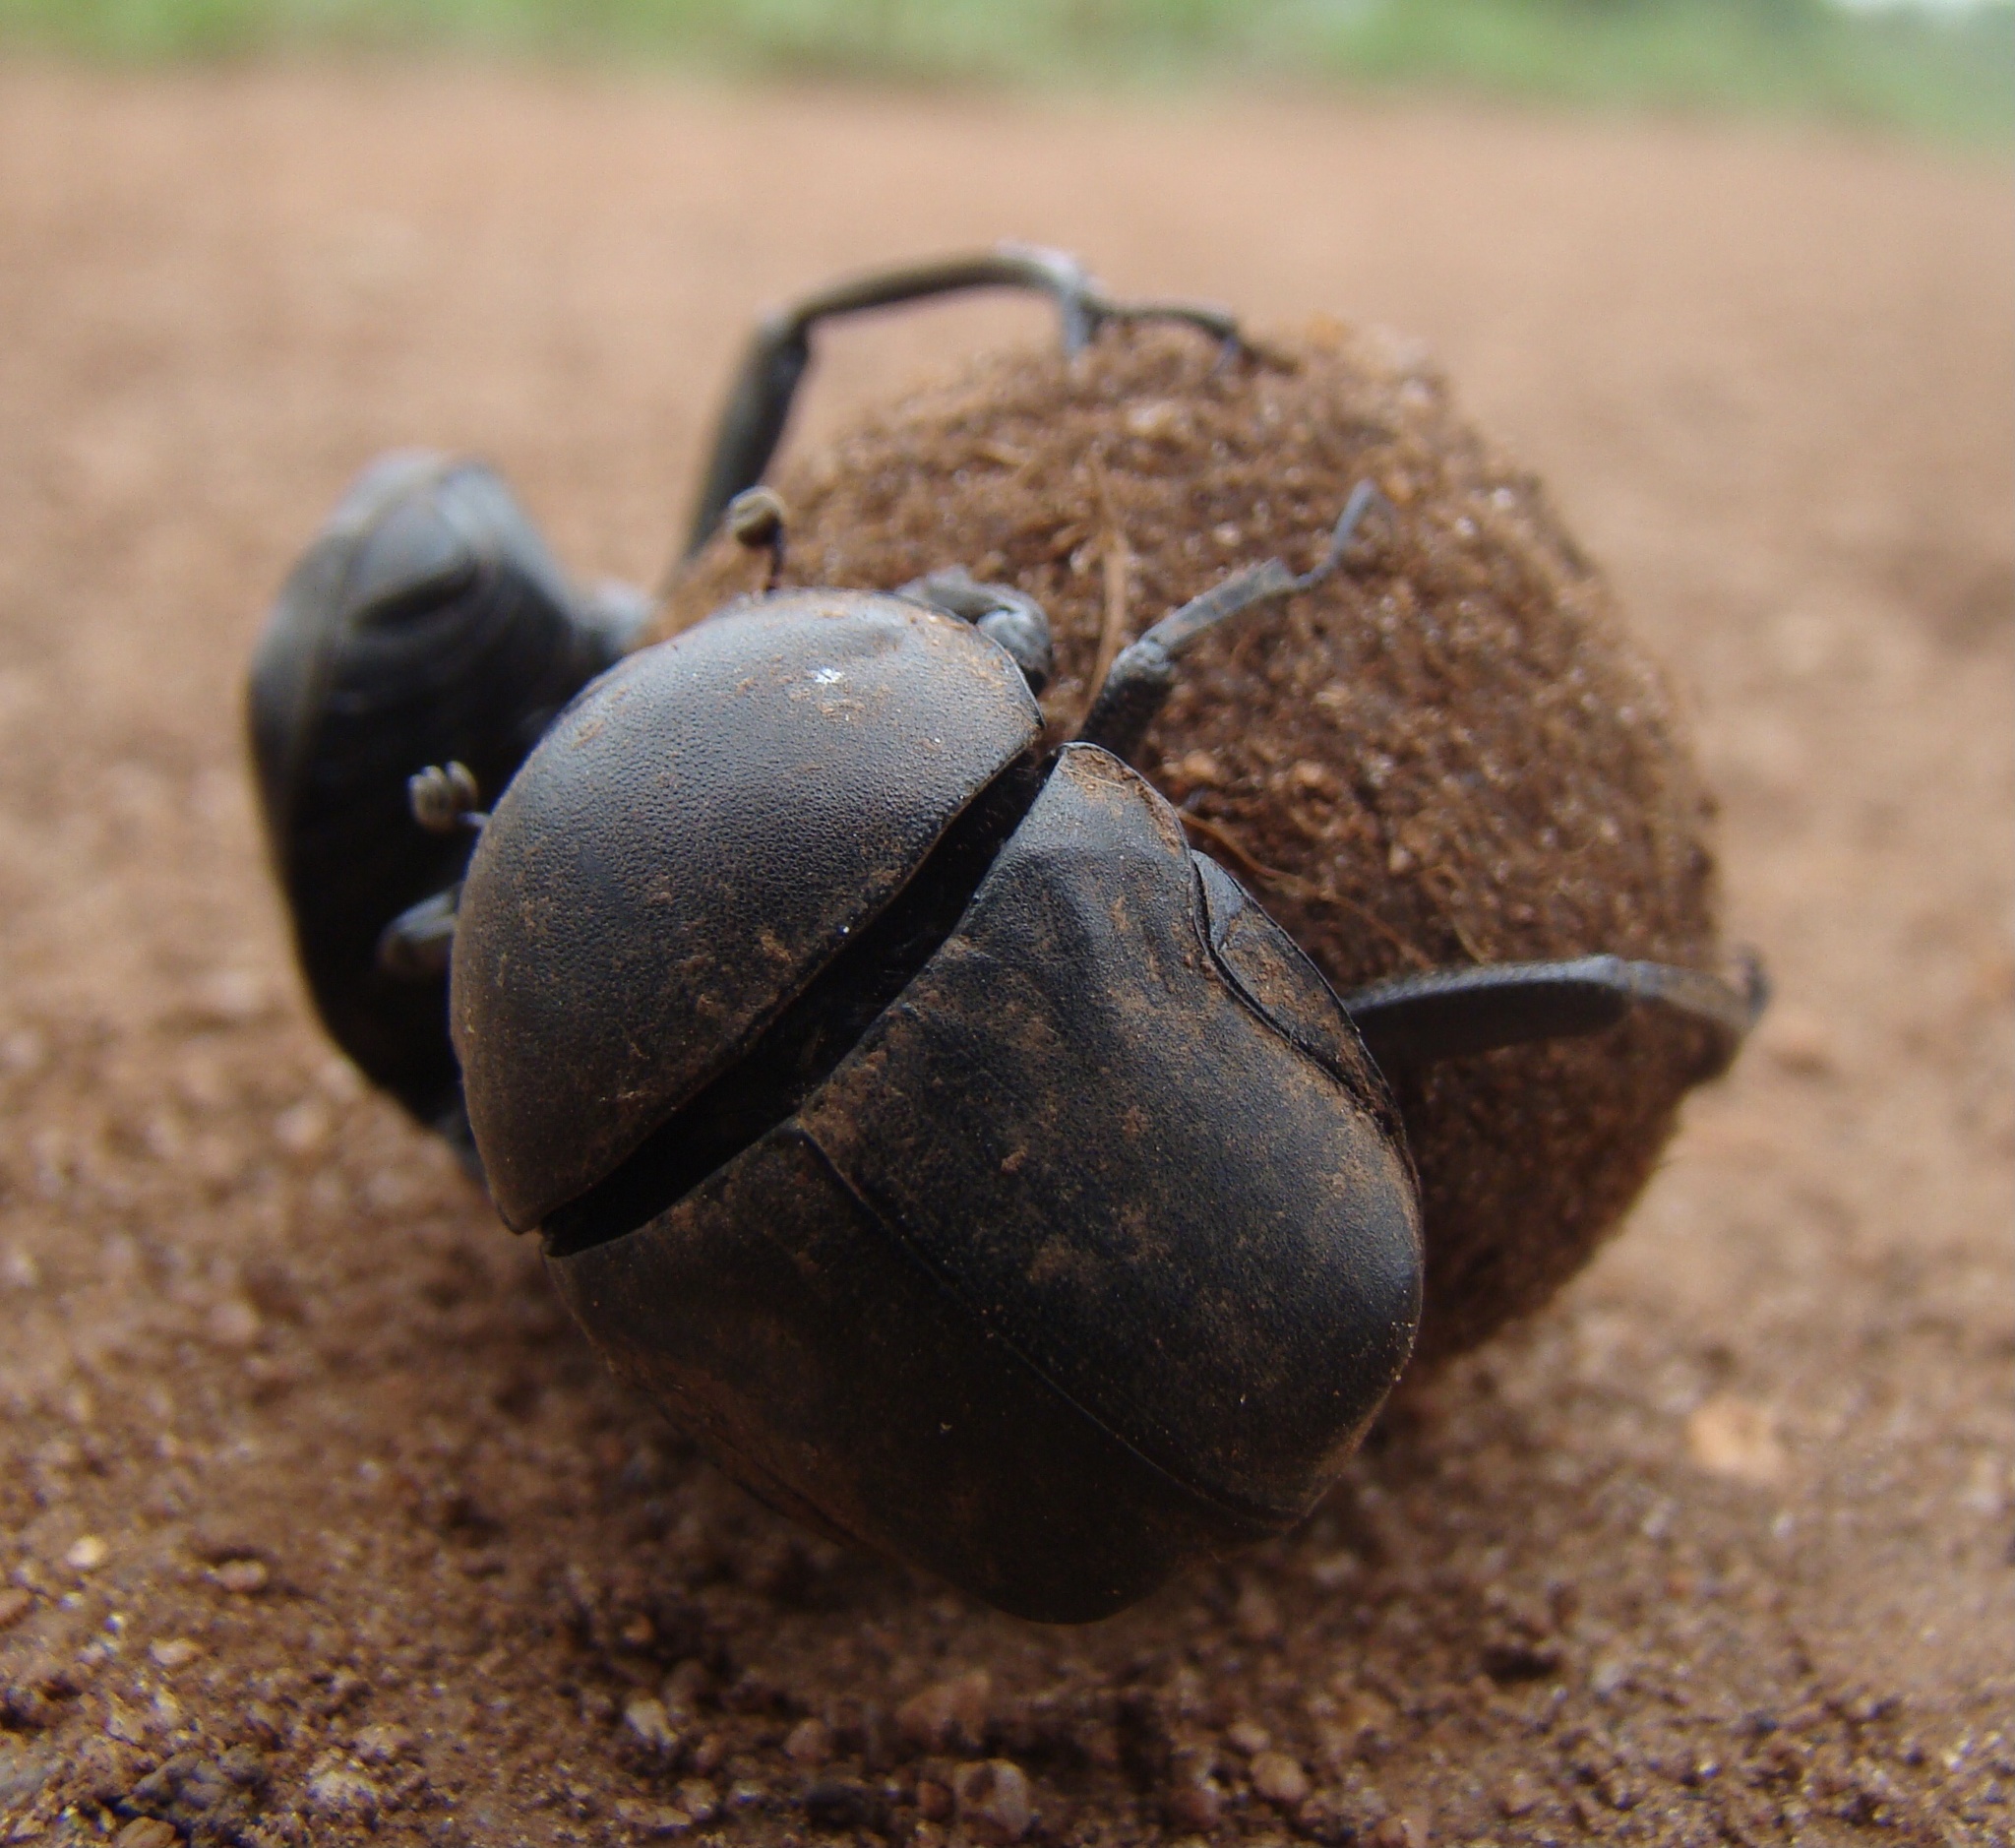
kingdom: Animalia
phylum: Arthropoda
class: Insecta
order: Coleoptera
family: Scarabaeidae
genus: Allogymnopleurus
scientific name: Allogymnopleurus splendidus
